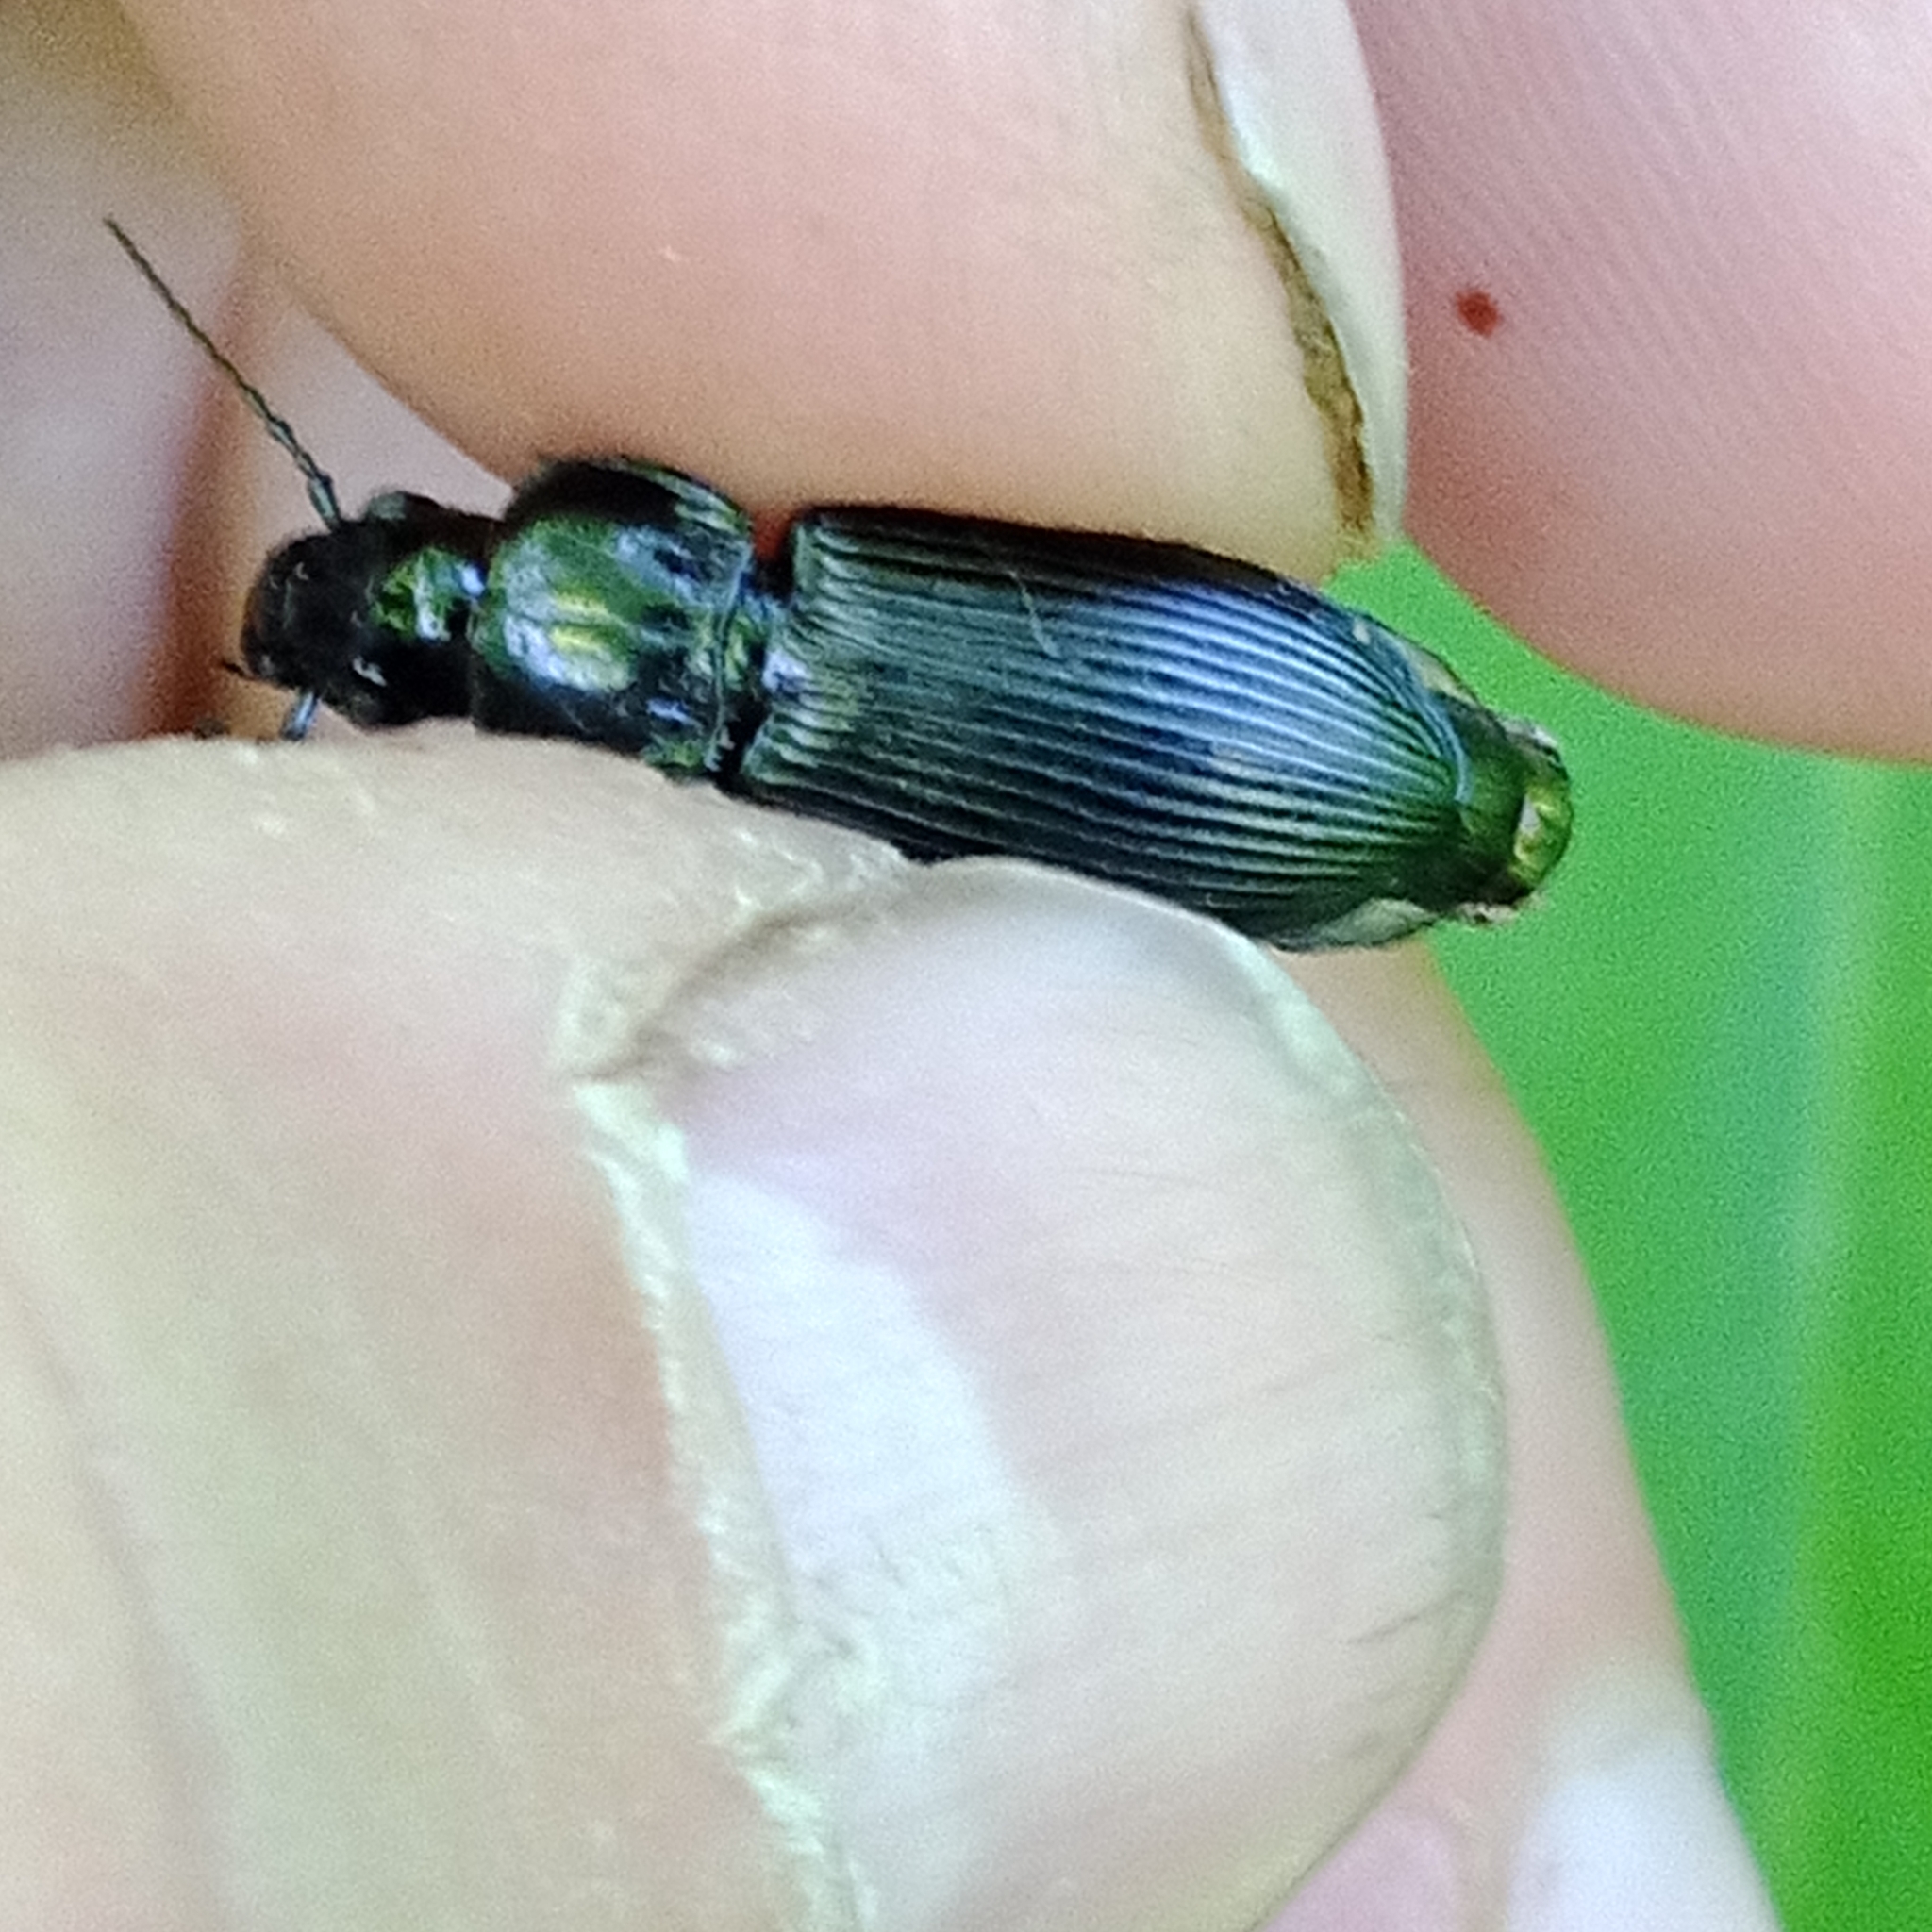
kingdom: Animalia
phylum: Arthropoda
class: Insecta
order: Coleoptera
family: Carabidae
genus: Pterostichus
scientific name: Pterostichus melanarius
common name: European dark harp ground beetle
